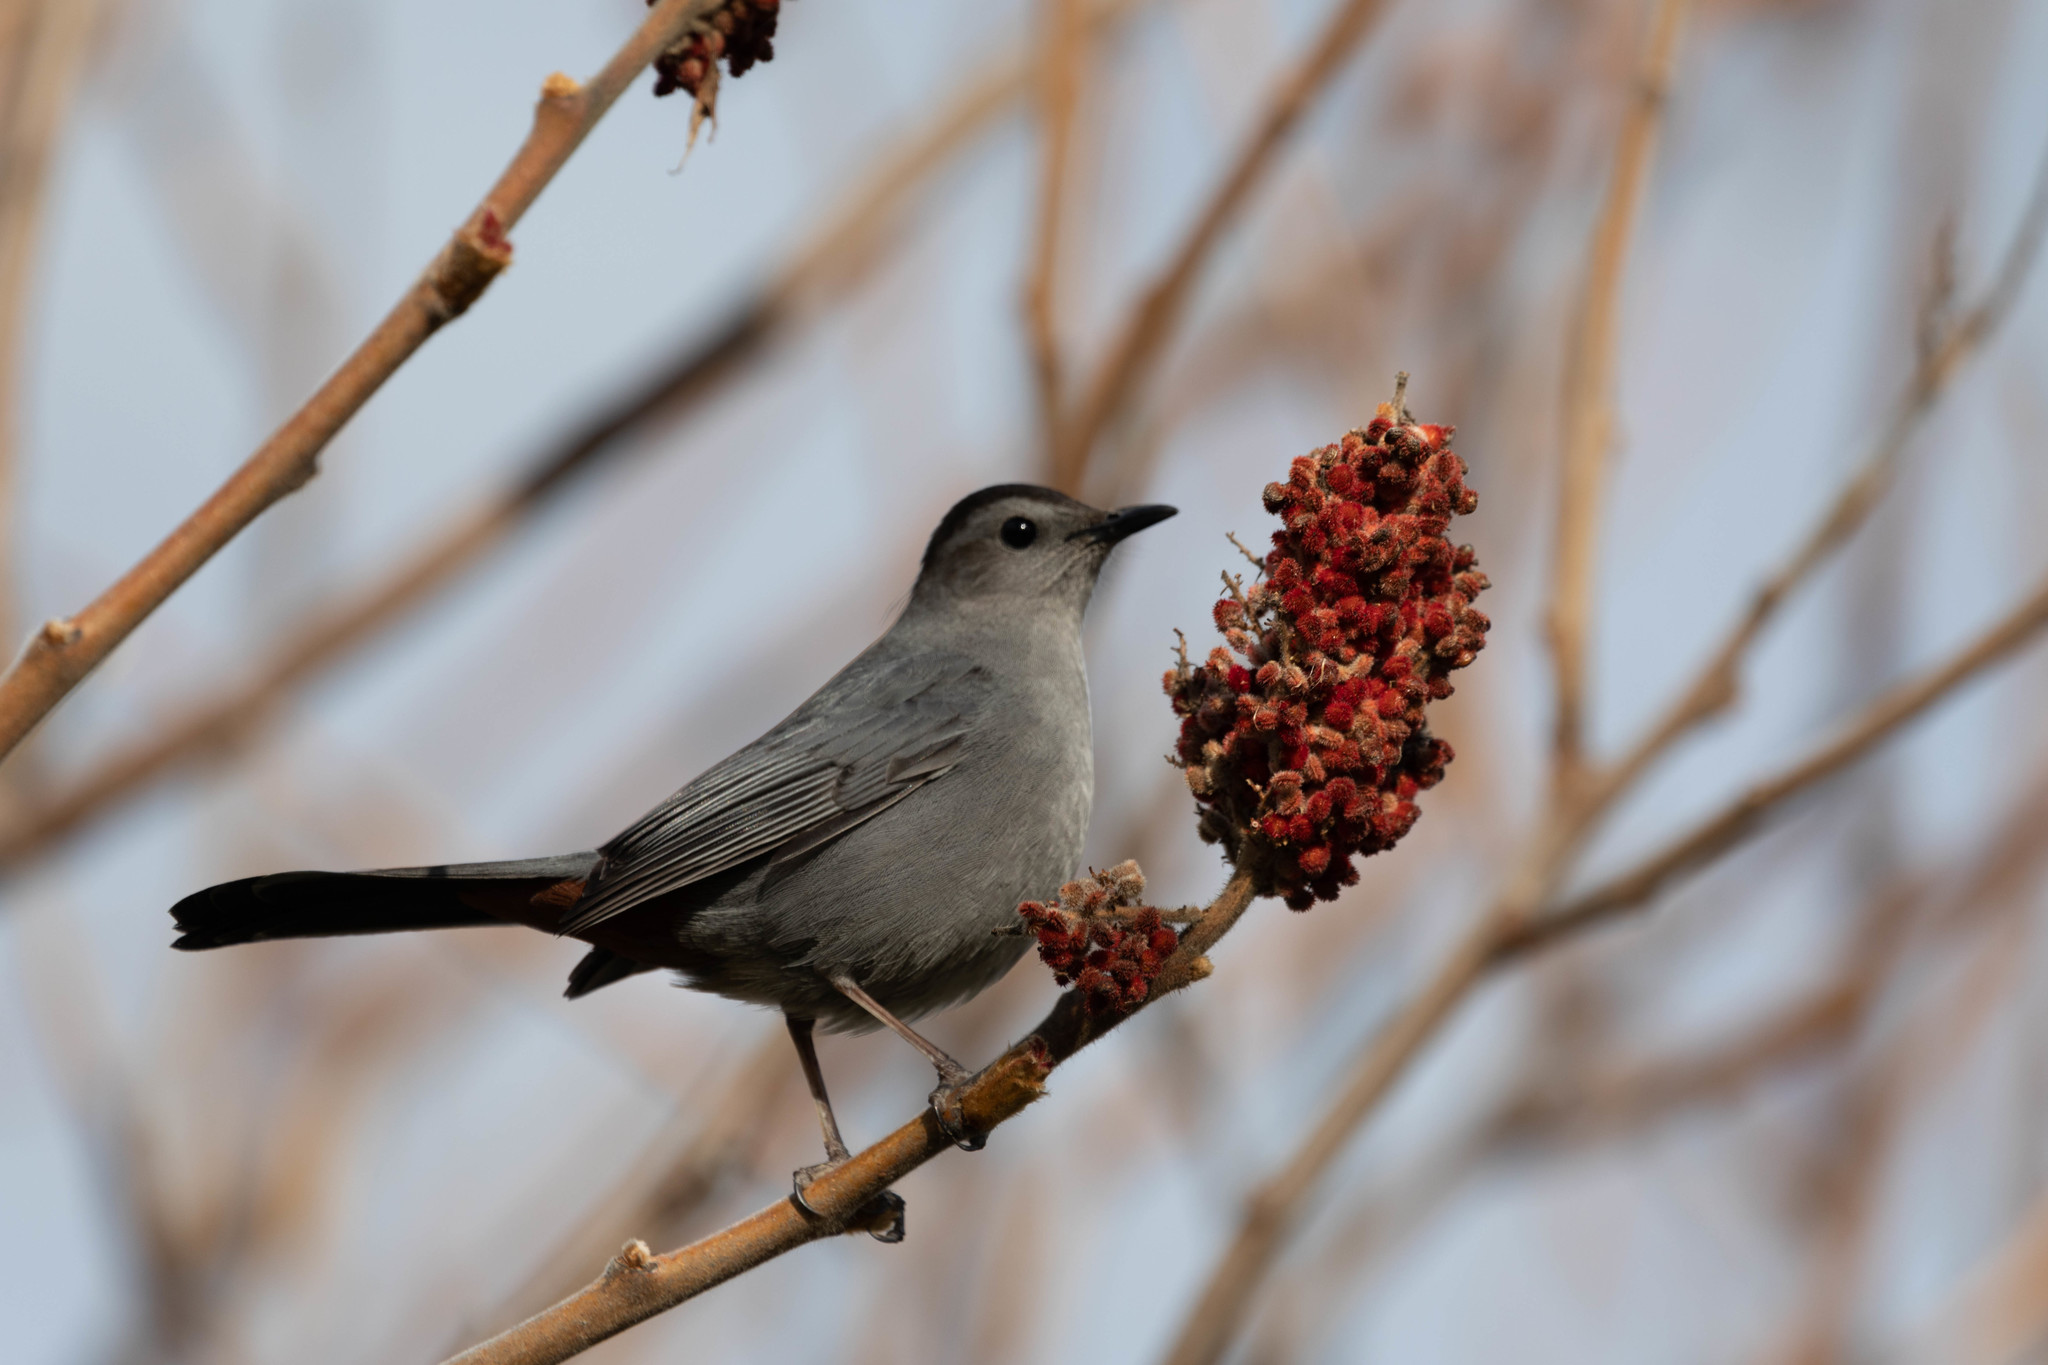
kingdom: Animalia
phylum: Chordata
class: Aves
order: Passeriformes
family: Mimidae
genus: Dumetella
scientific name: Dumetella carolinensis
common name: Gray catbird
